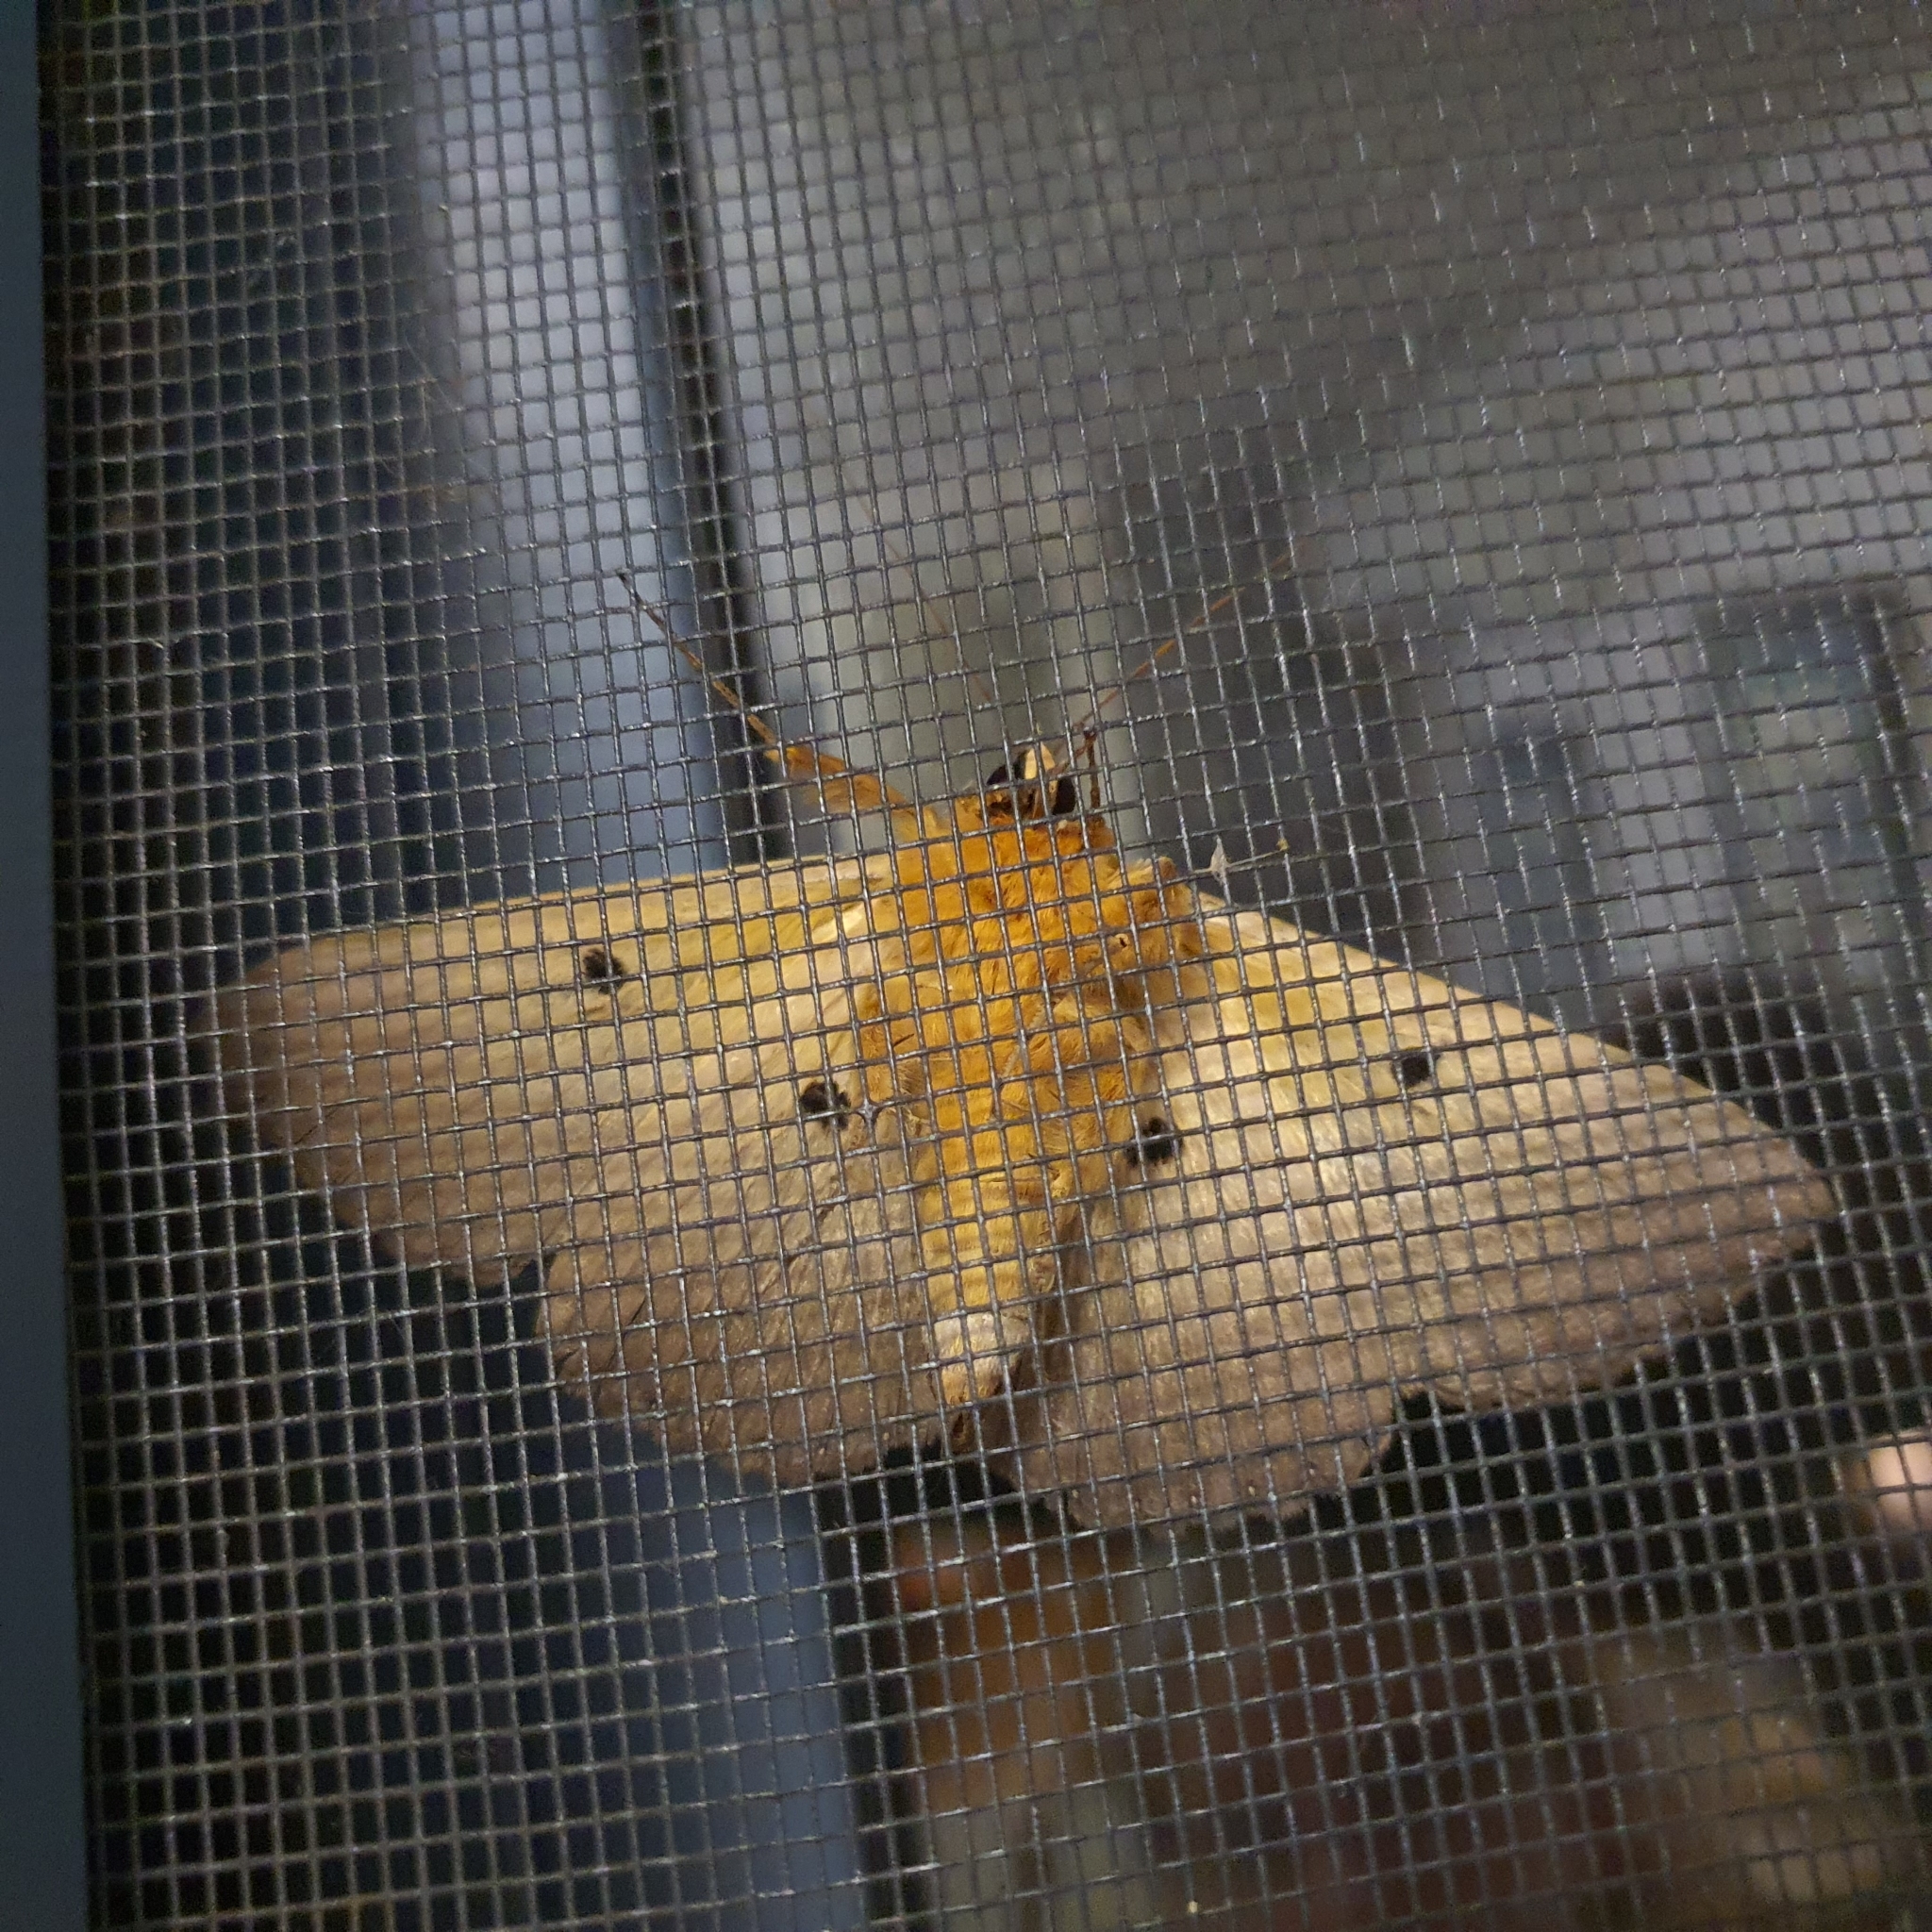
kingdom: Animalia
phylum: Arthropoda
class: Insecta
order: Lepidoptera
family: Erebidae
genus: Dasypodia
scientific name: Dasypodia selenophora
